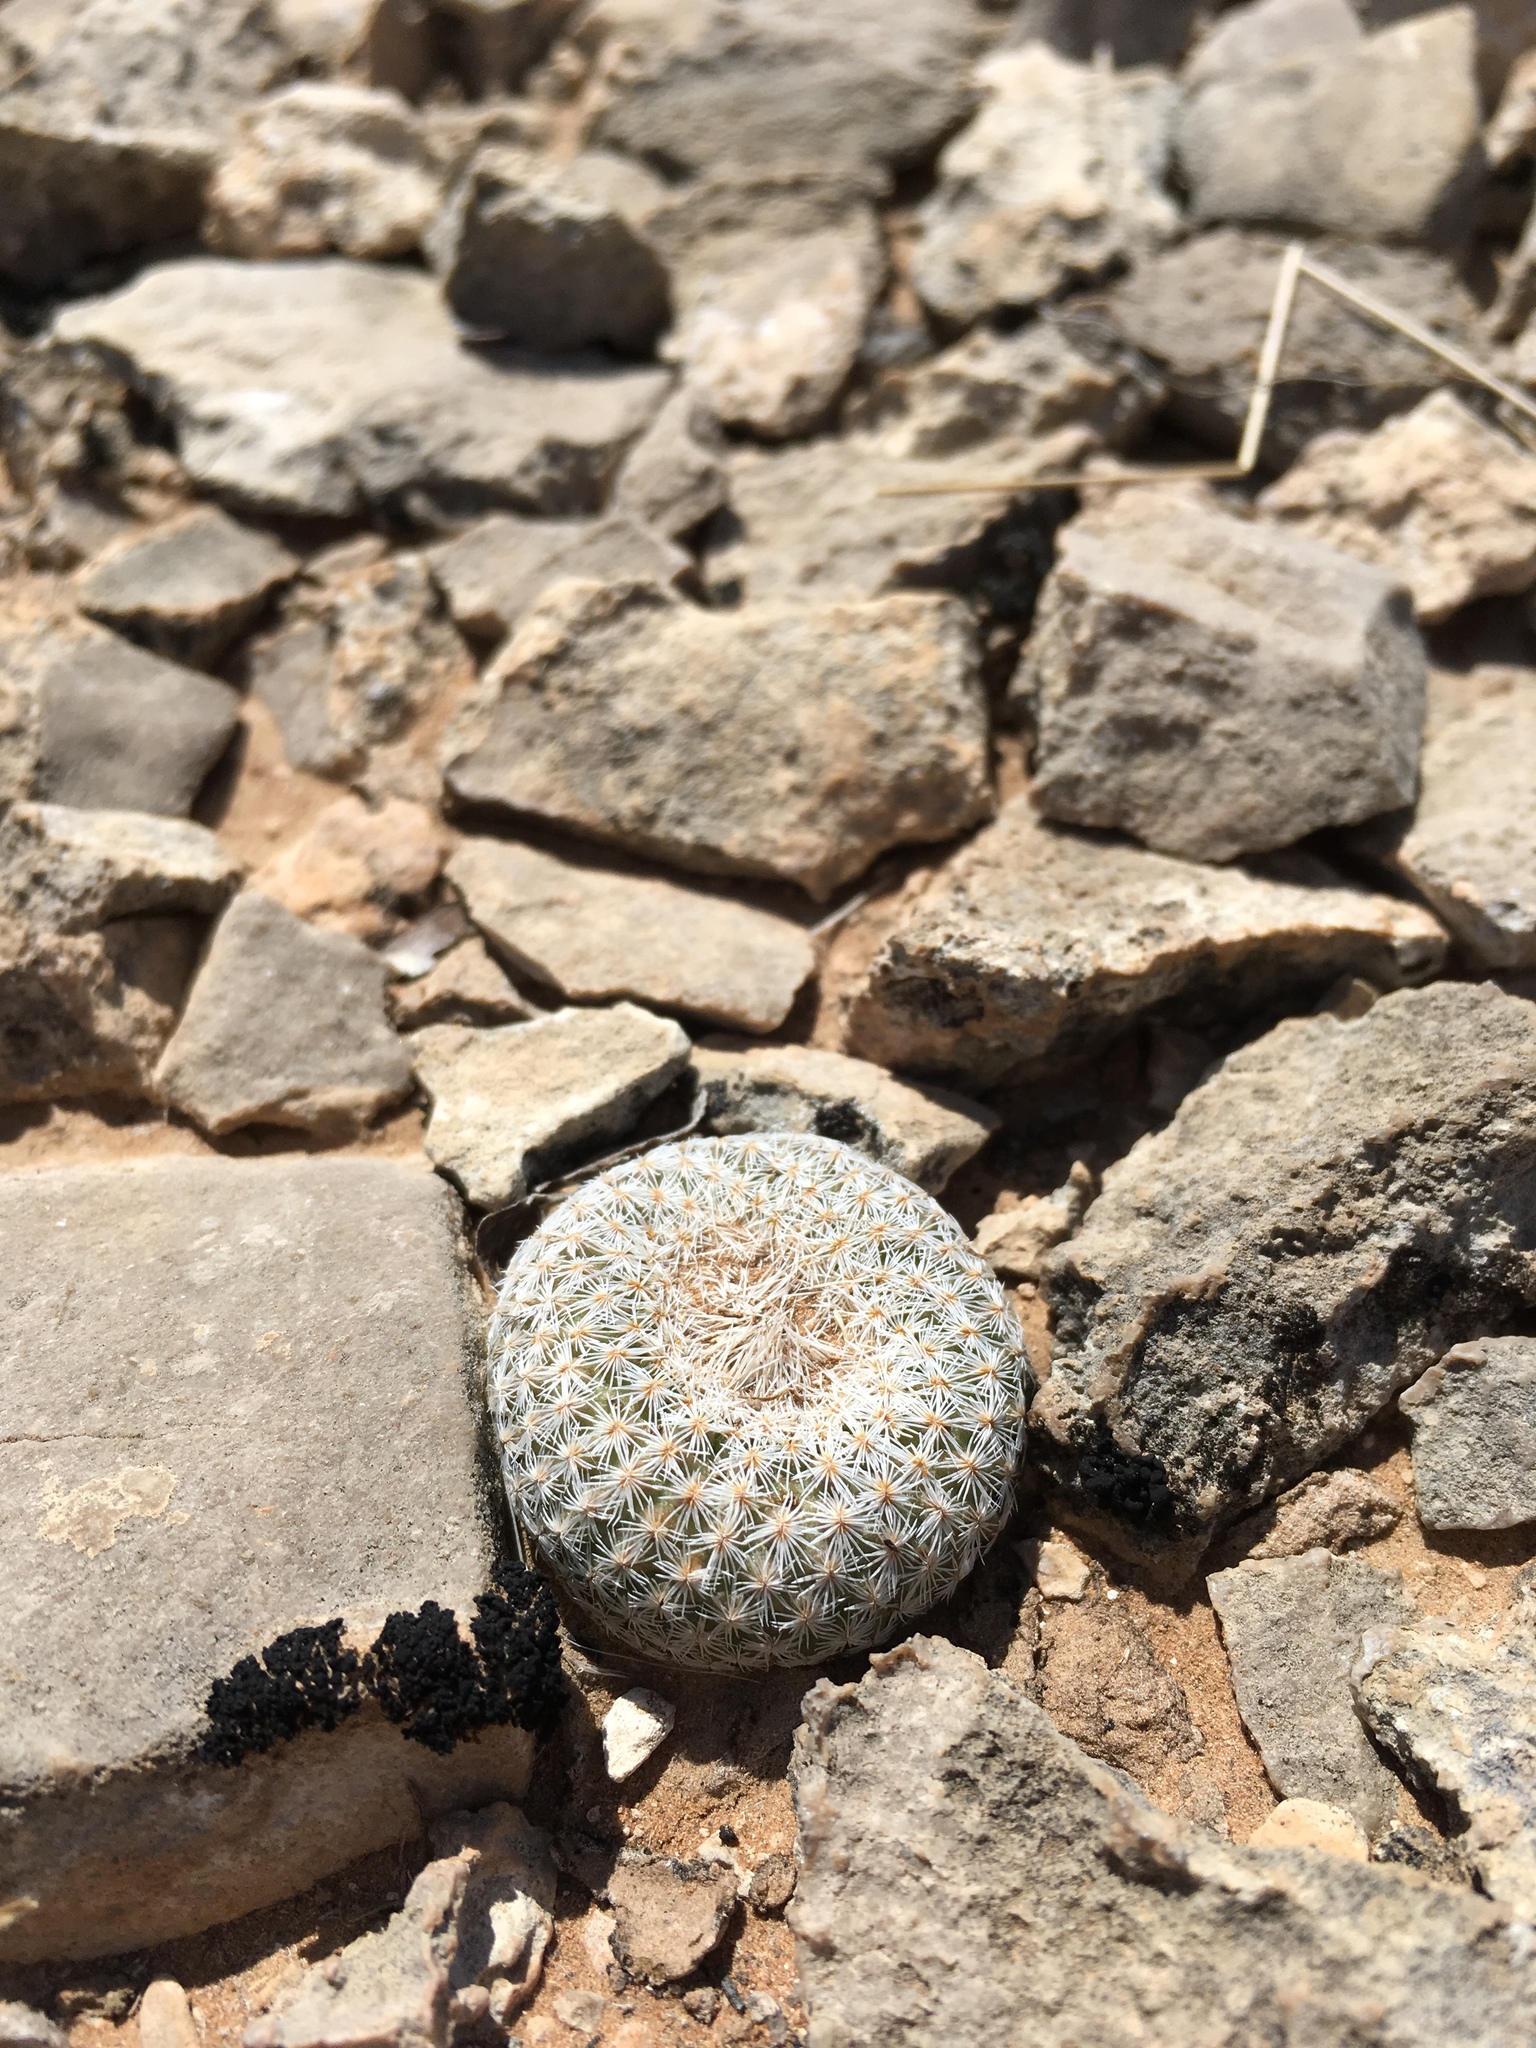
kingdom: Plantae
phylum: Tracheophyta
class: Magnoliopsida
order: Caryophyllales
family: Cactaceae
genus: Epithelantha
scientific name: Epithelantha micromeris
